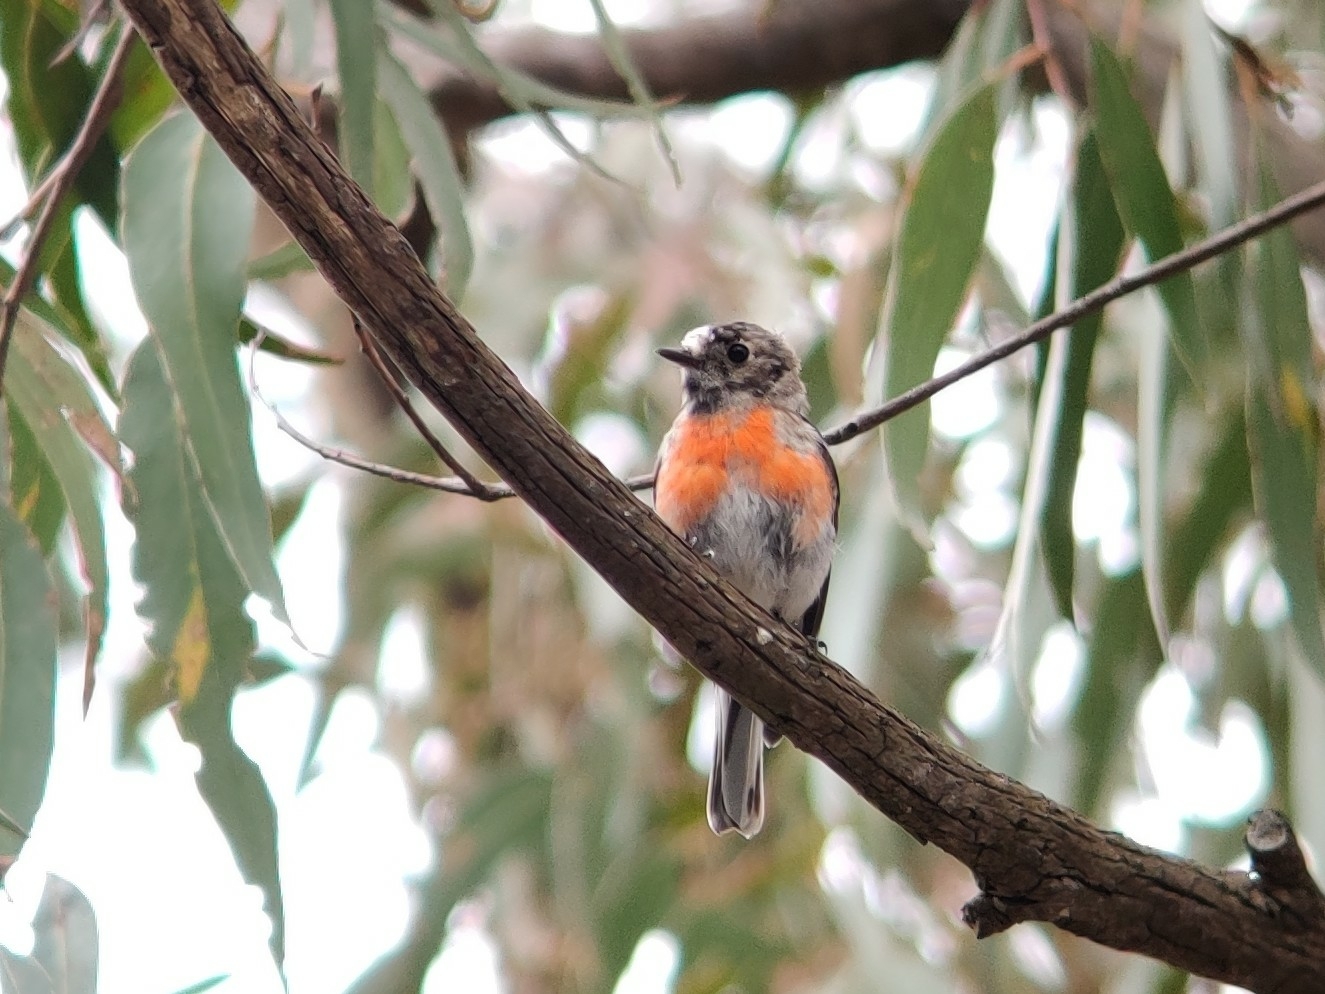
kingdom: Animalia
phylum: Chordata
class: Aves
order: Passeriformes
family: Petroicidae
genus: Petroica
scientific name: Petroica boodang
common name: Scarlet robin
